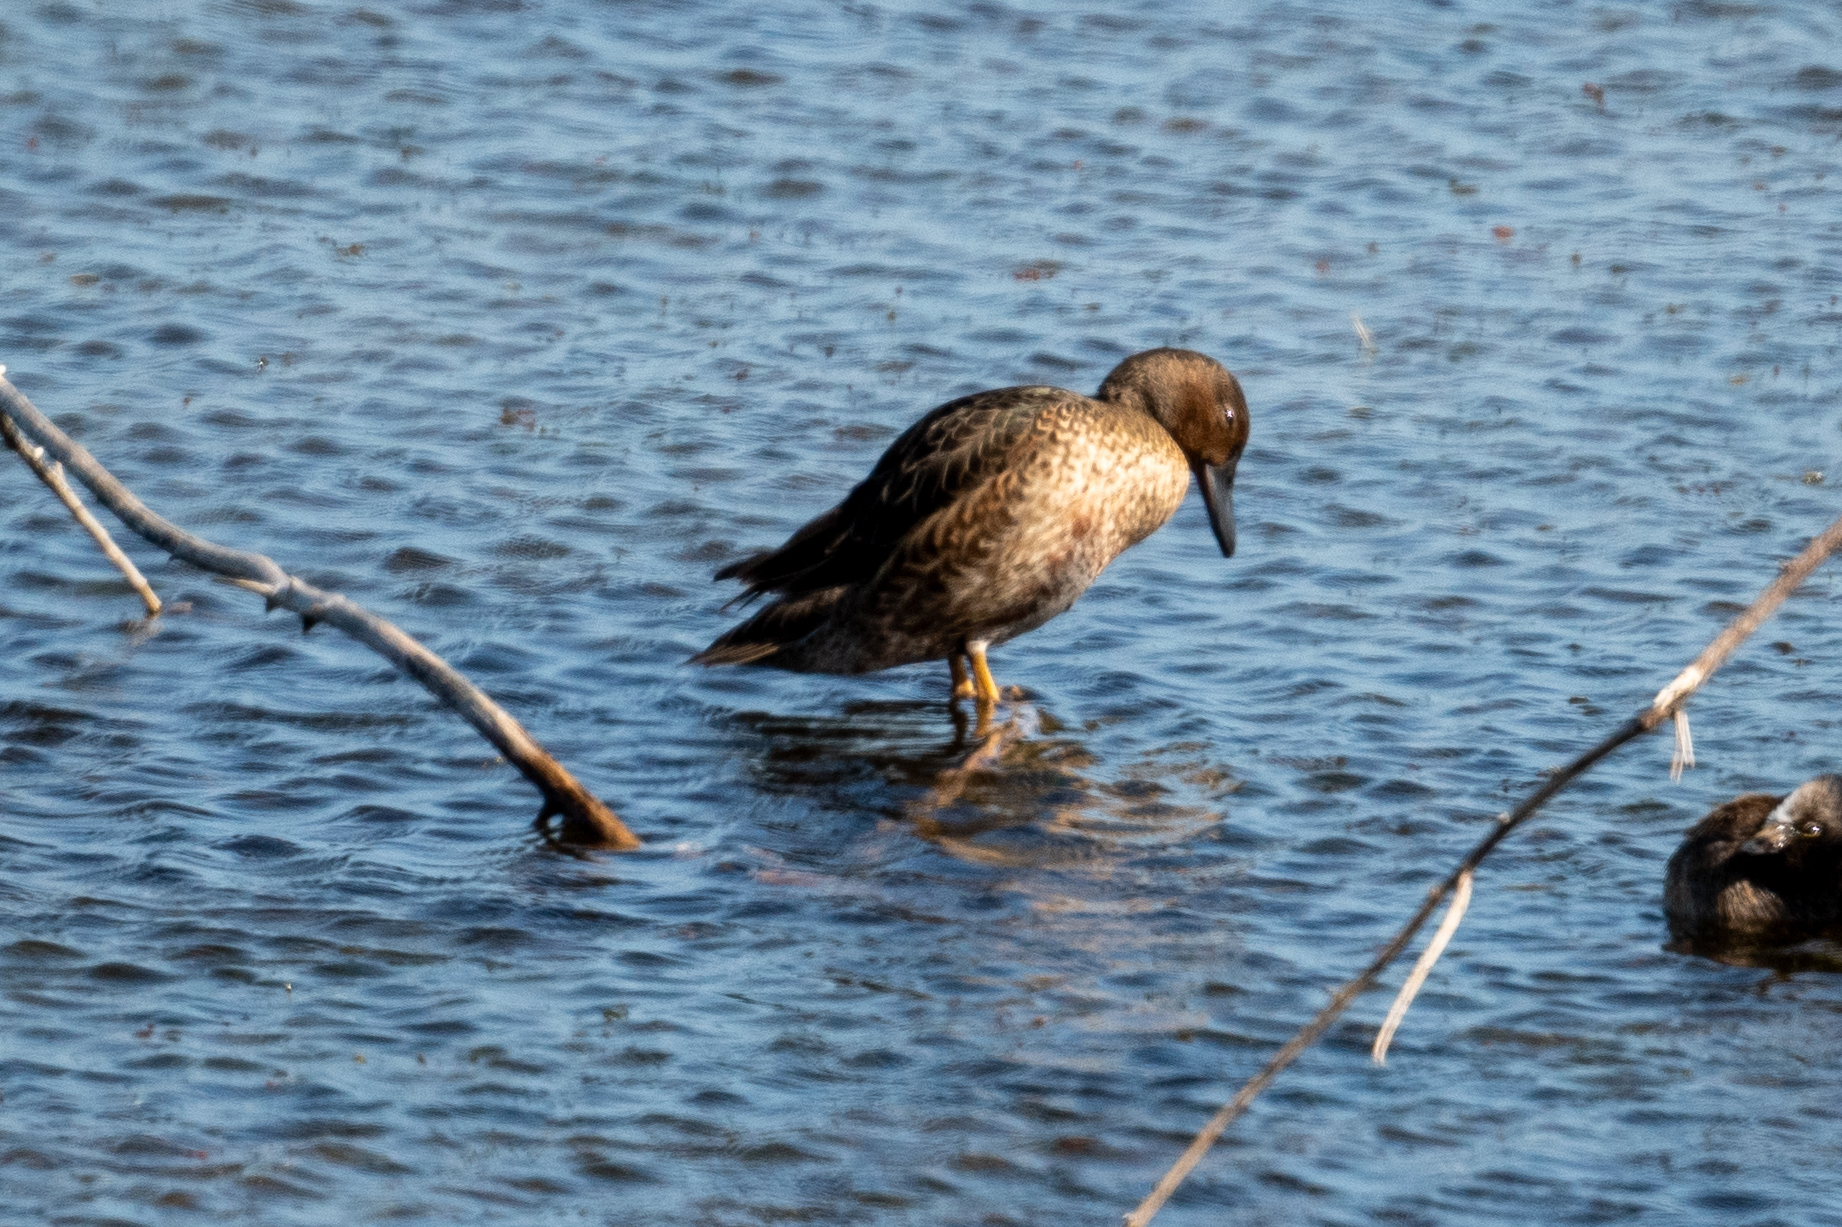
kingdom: Animalia
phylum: Chordata
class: Aves
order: Anseriformes
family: Anatidae
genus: Spatula
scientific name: Spatula cyanoptera
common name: Cinnamon teal
